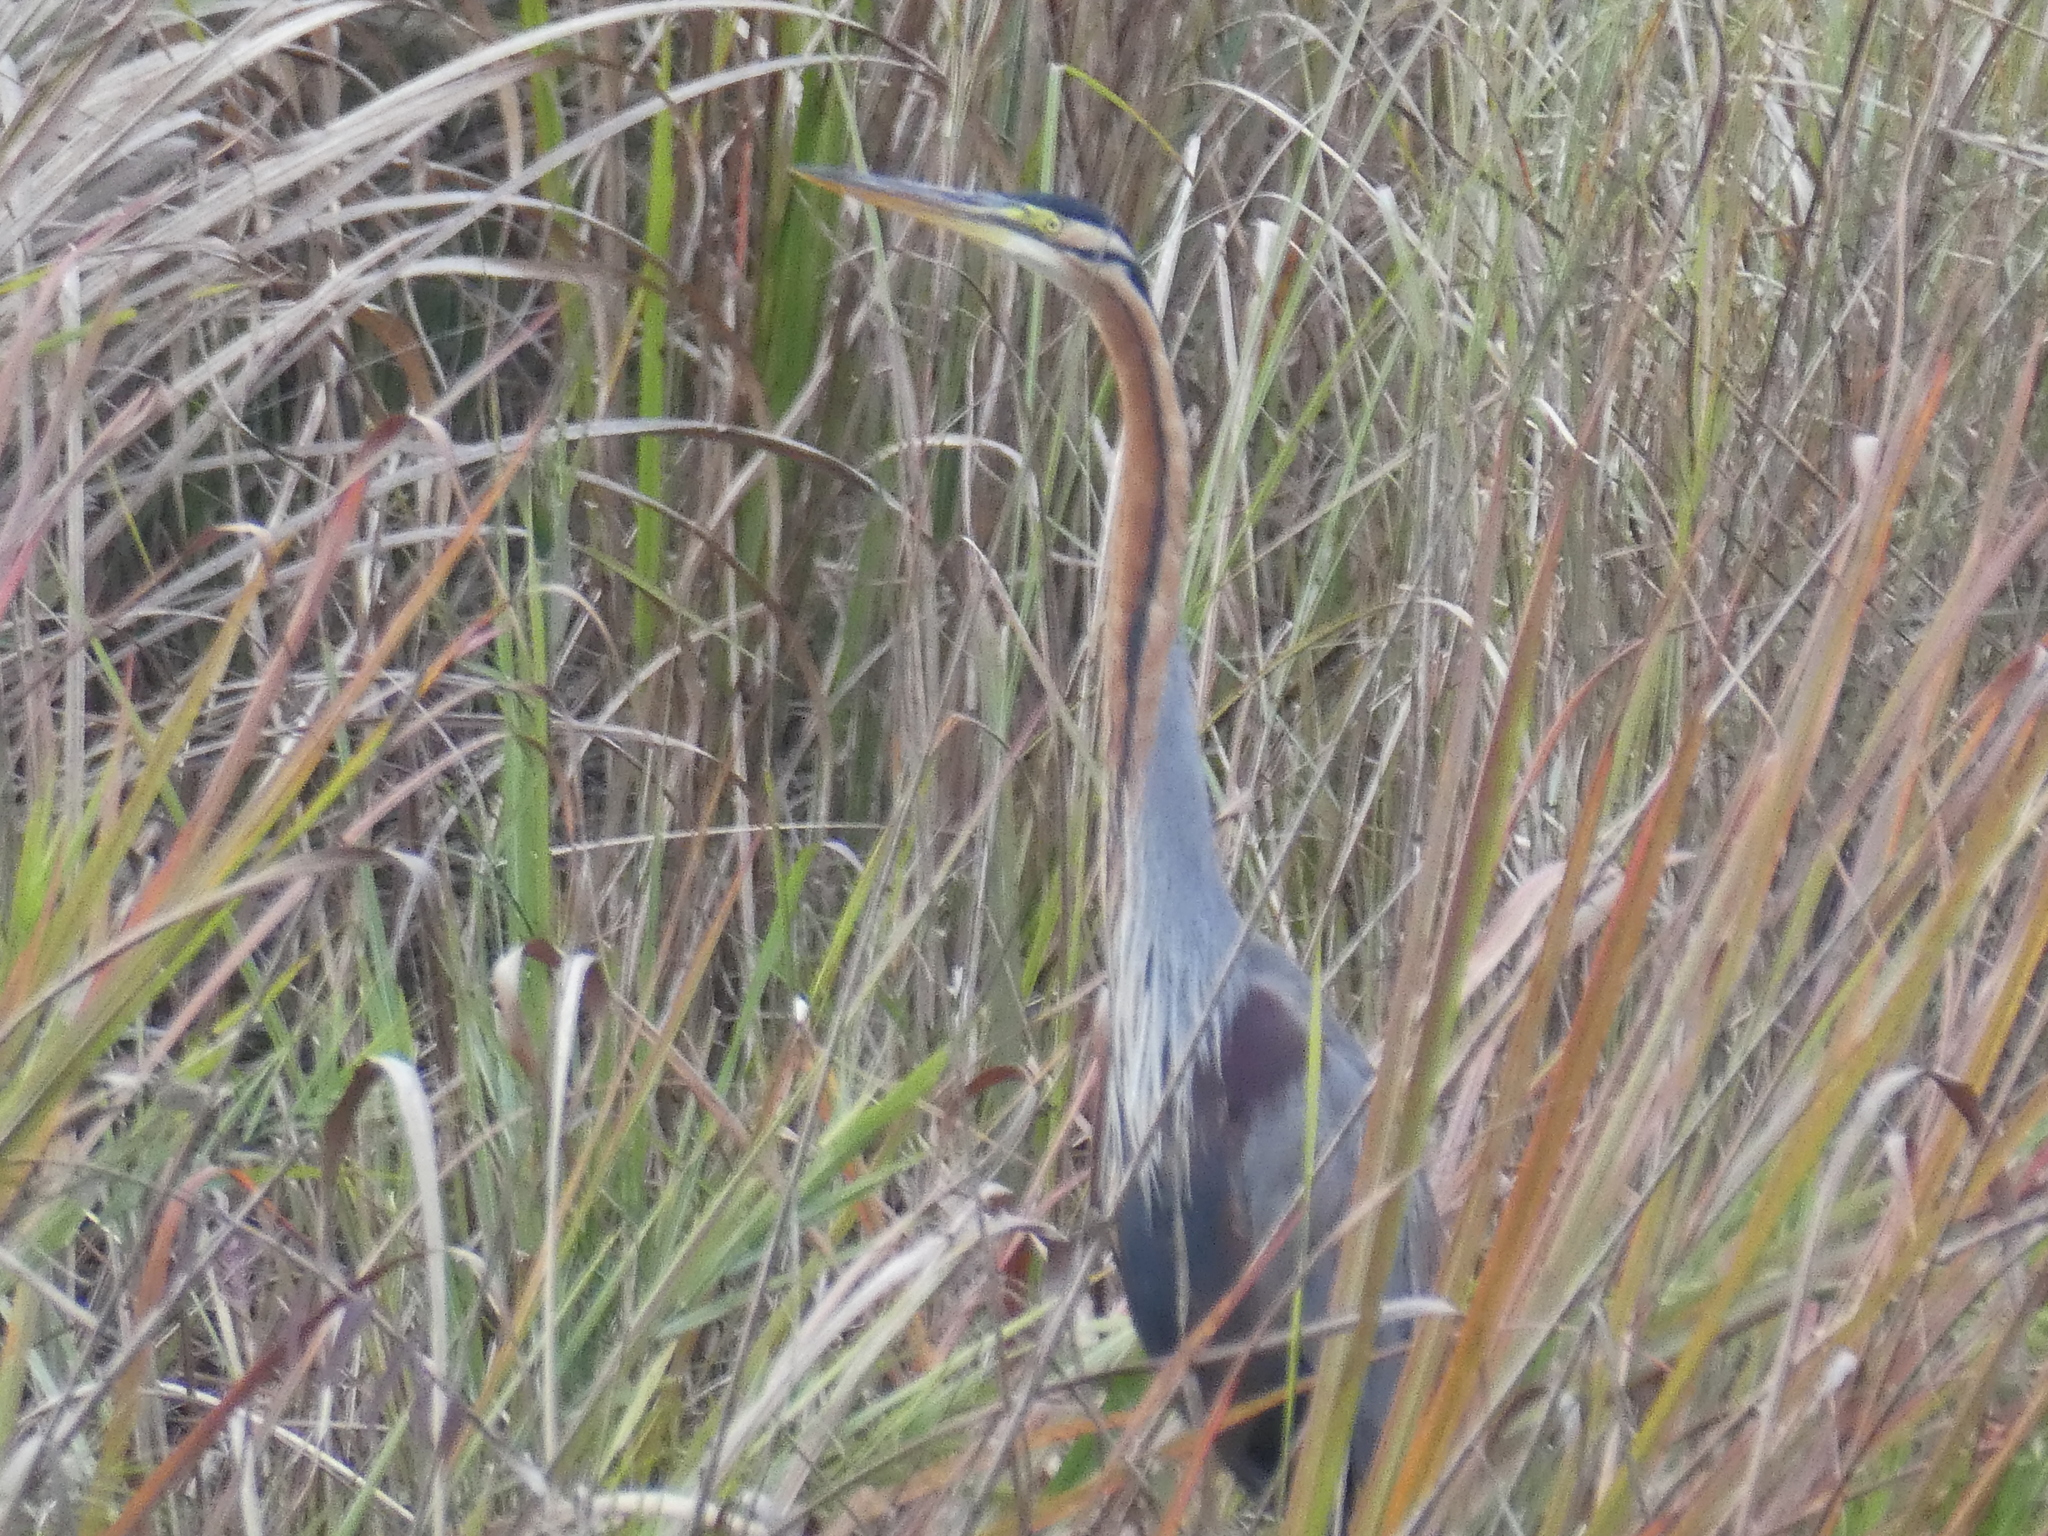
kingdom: Animalia
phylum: Chordata
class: Aves
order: Pelecaniformes
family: Ardeidae
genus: Ardea
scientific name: Ardea purpurea
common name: Purple heron
